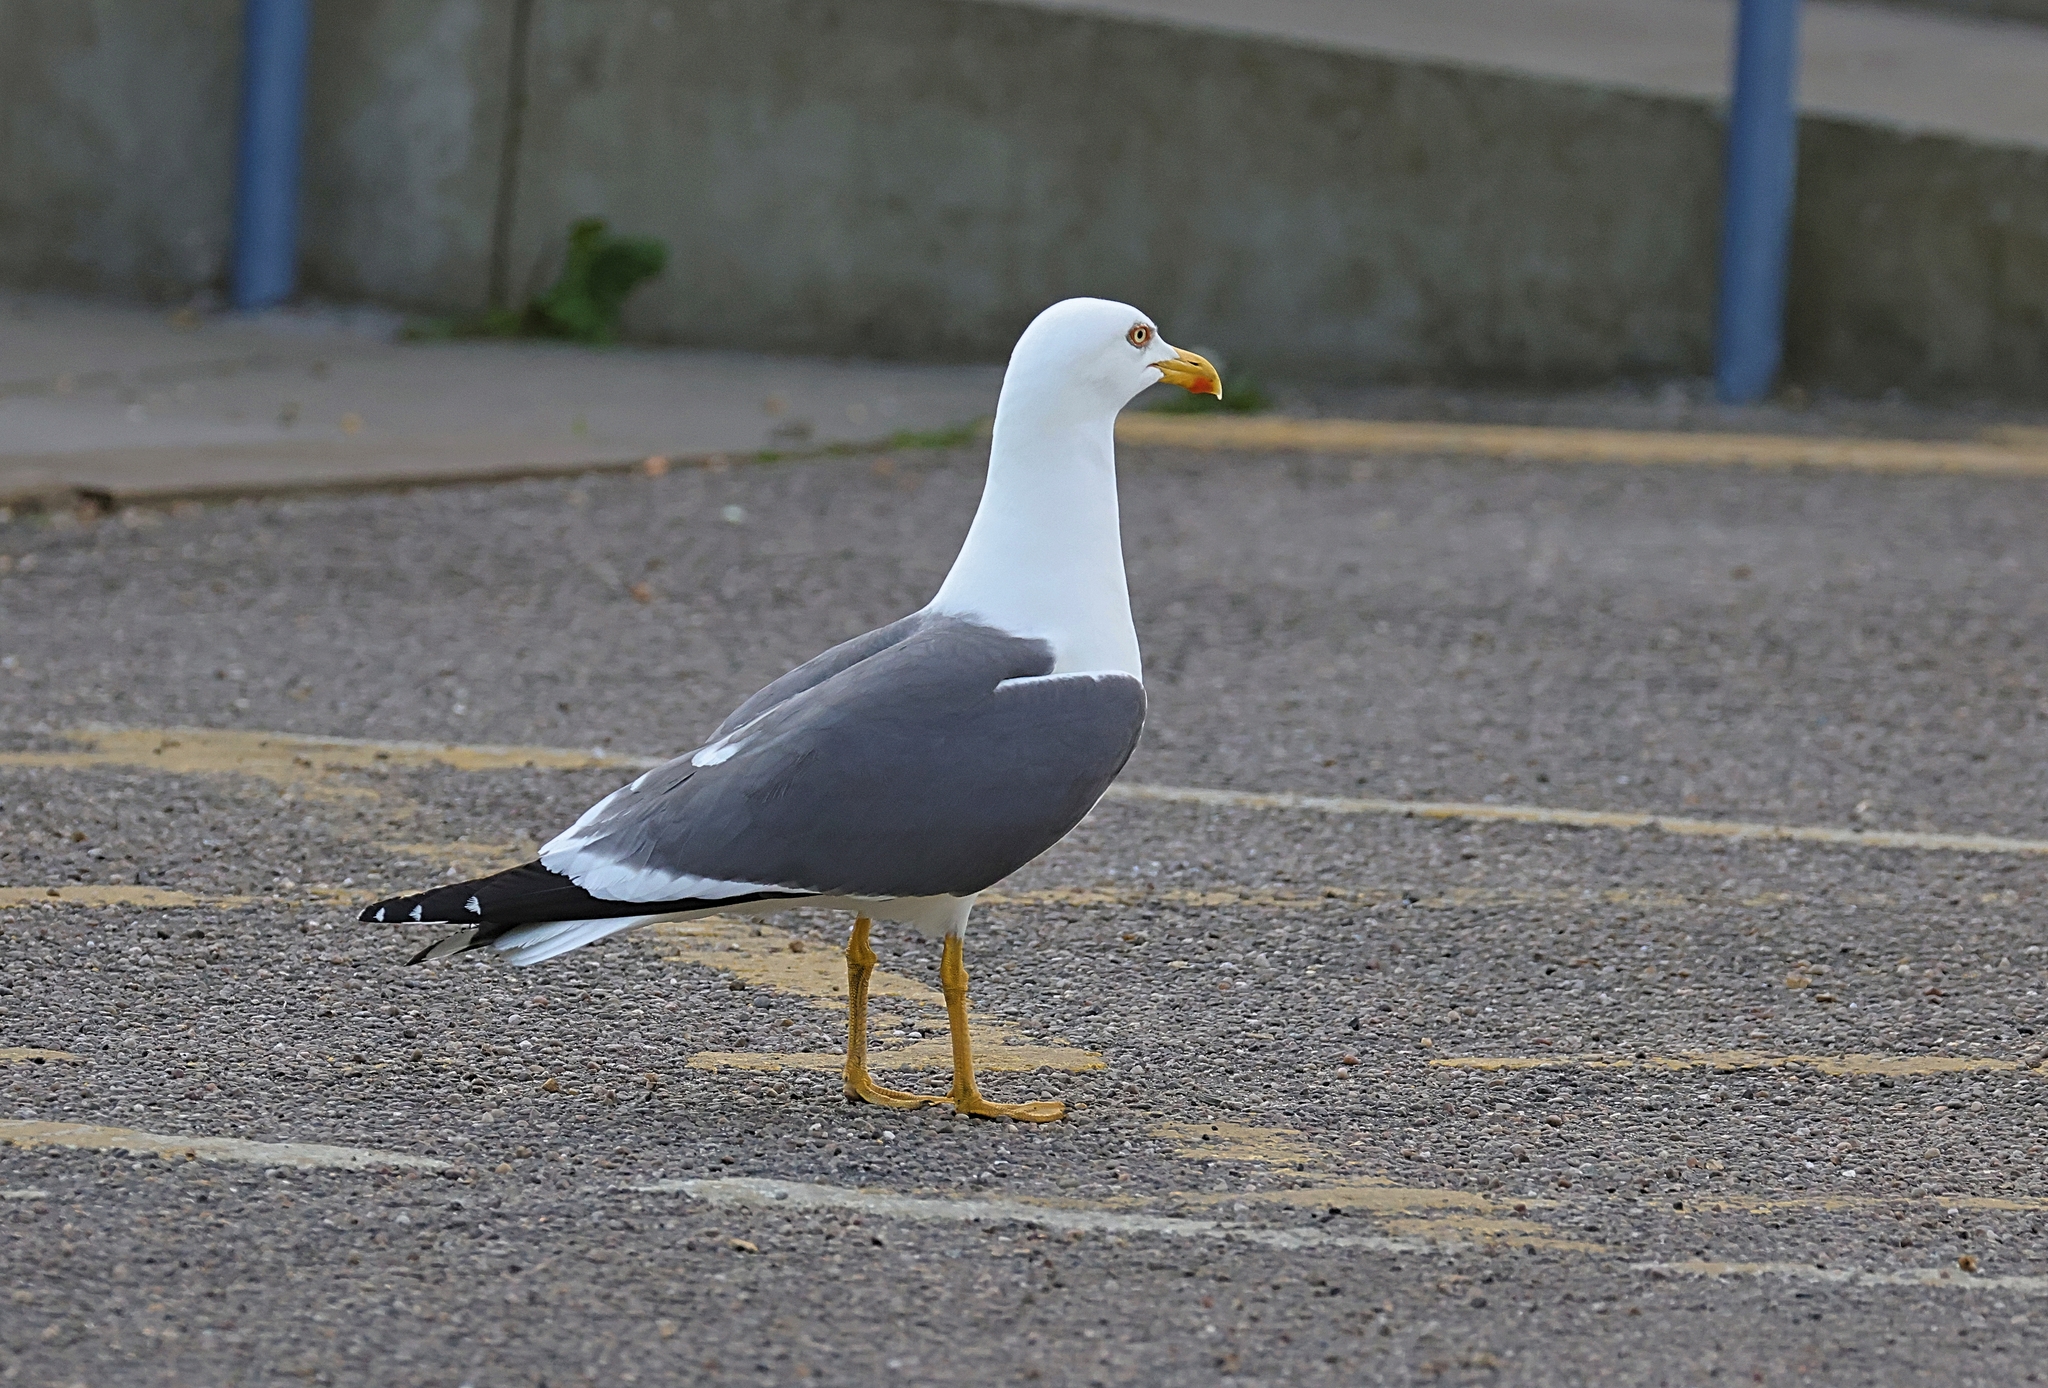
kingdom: Animalia
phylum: Chordata
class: Aves
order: Charadriiformes
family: Laridae
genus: Larus
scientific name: Larus fuscus
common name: Lesser black-backed gull
